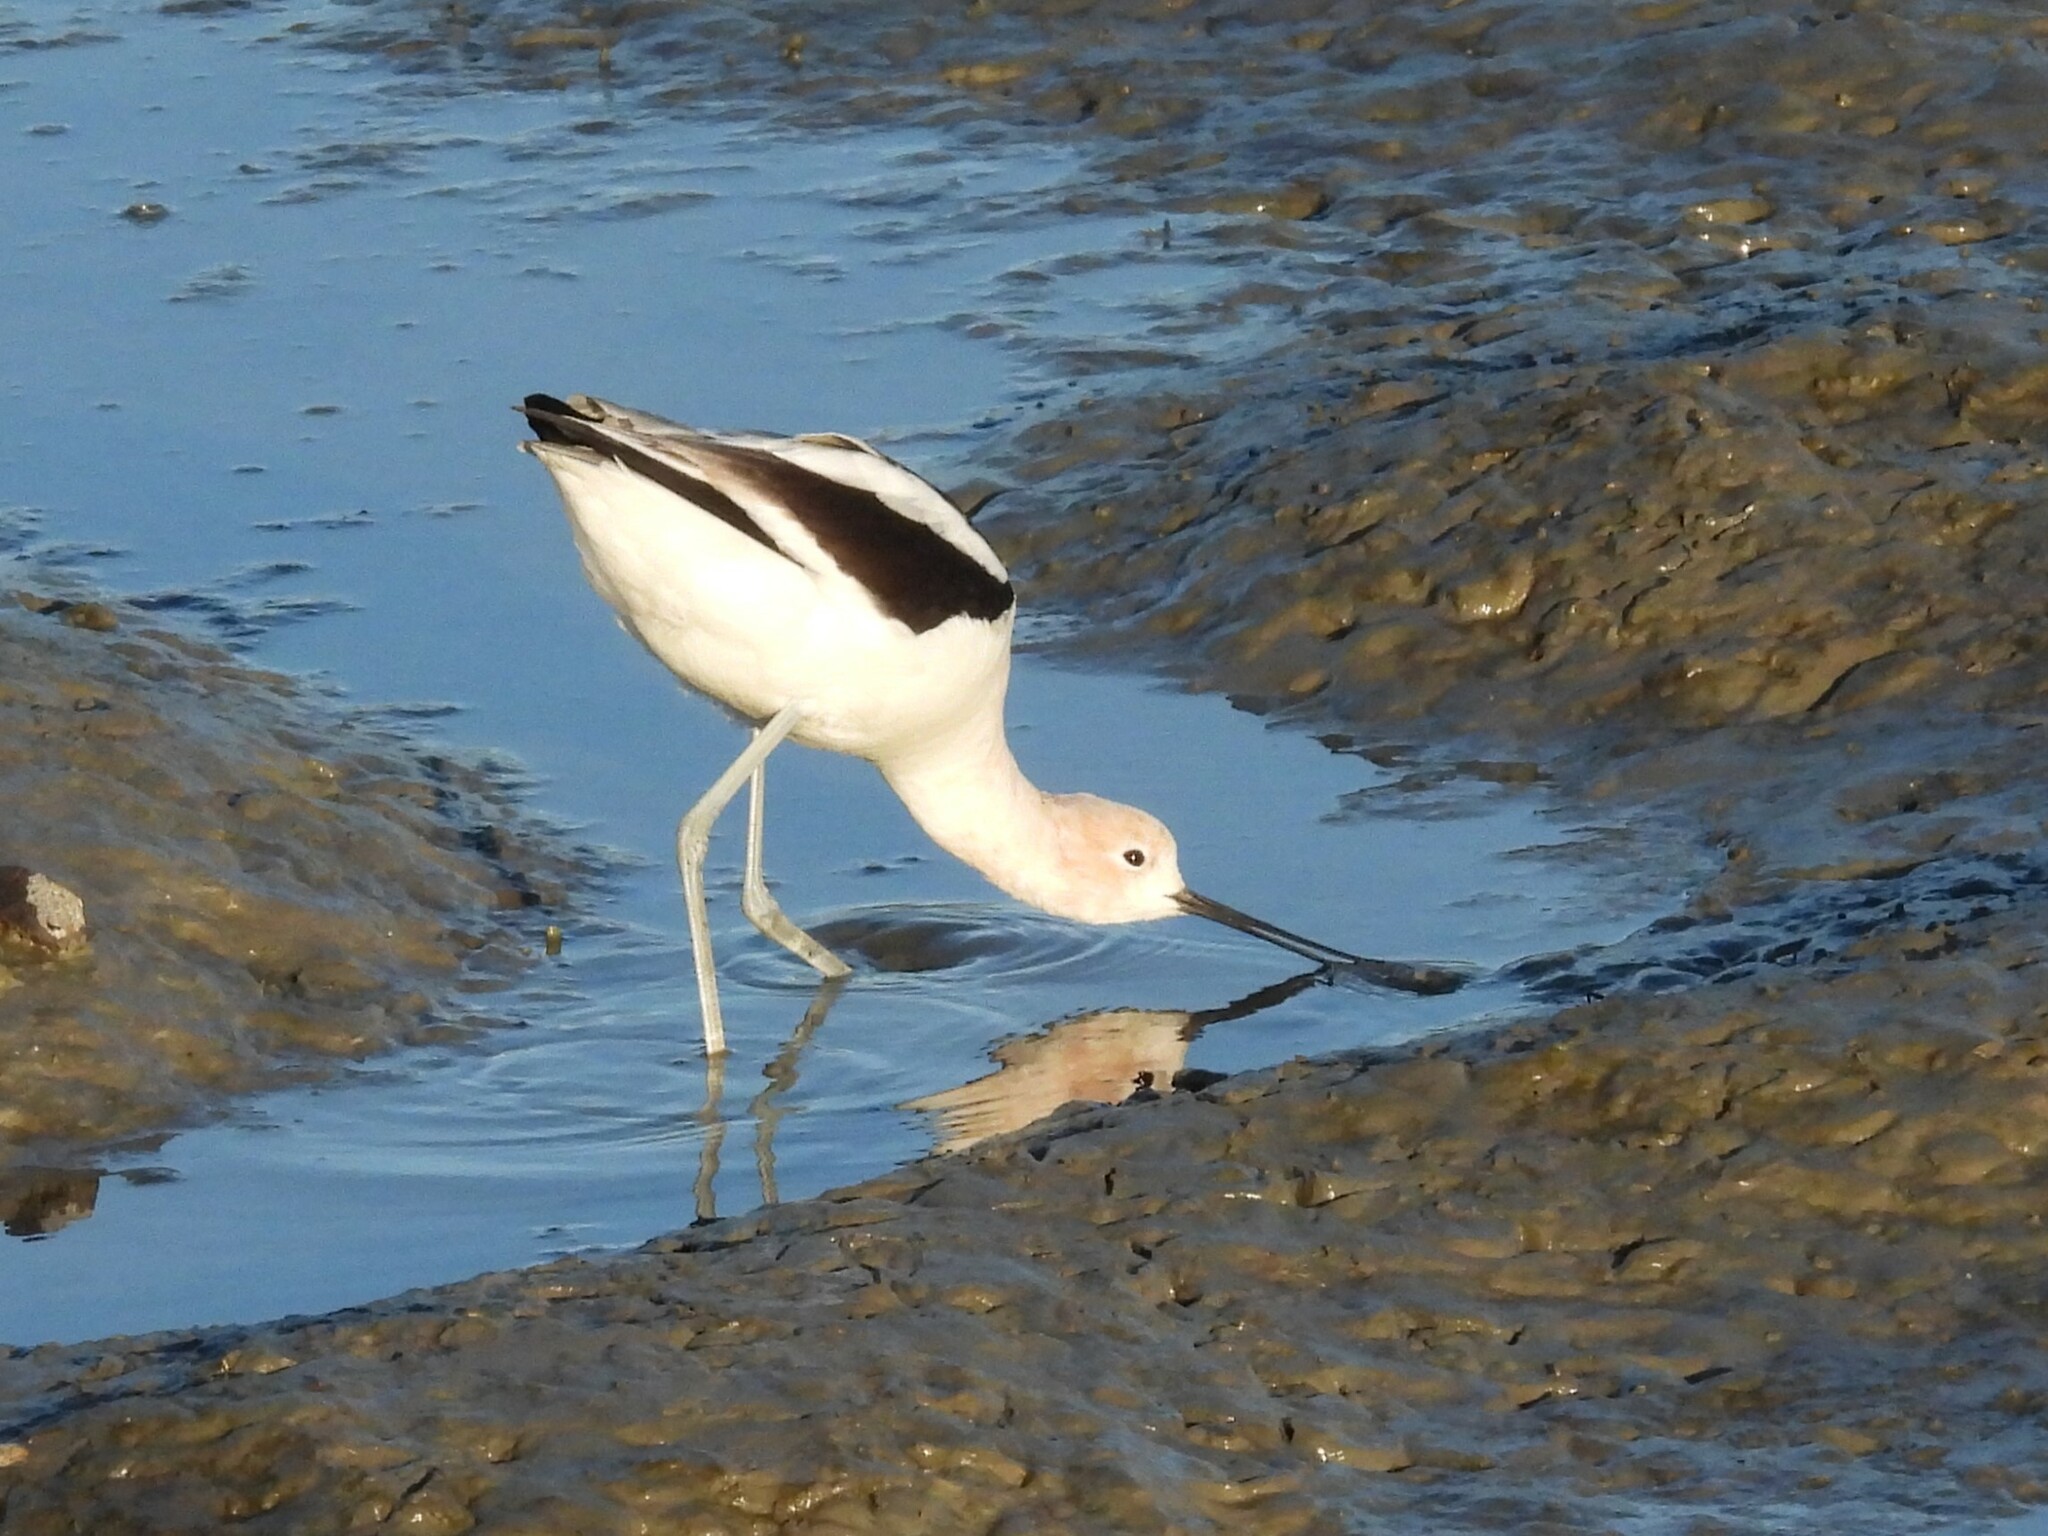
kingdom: Animalia
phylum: Chordata
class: Aves
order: Charadriiformes
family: Recurvirostridae
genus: Recurvirostra
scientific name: Recurvirostra americana
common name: American avocet
